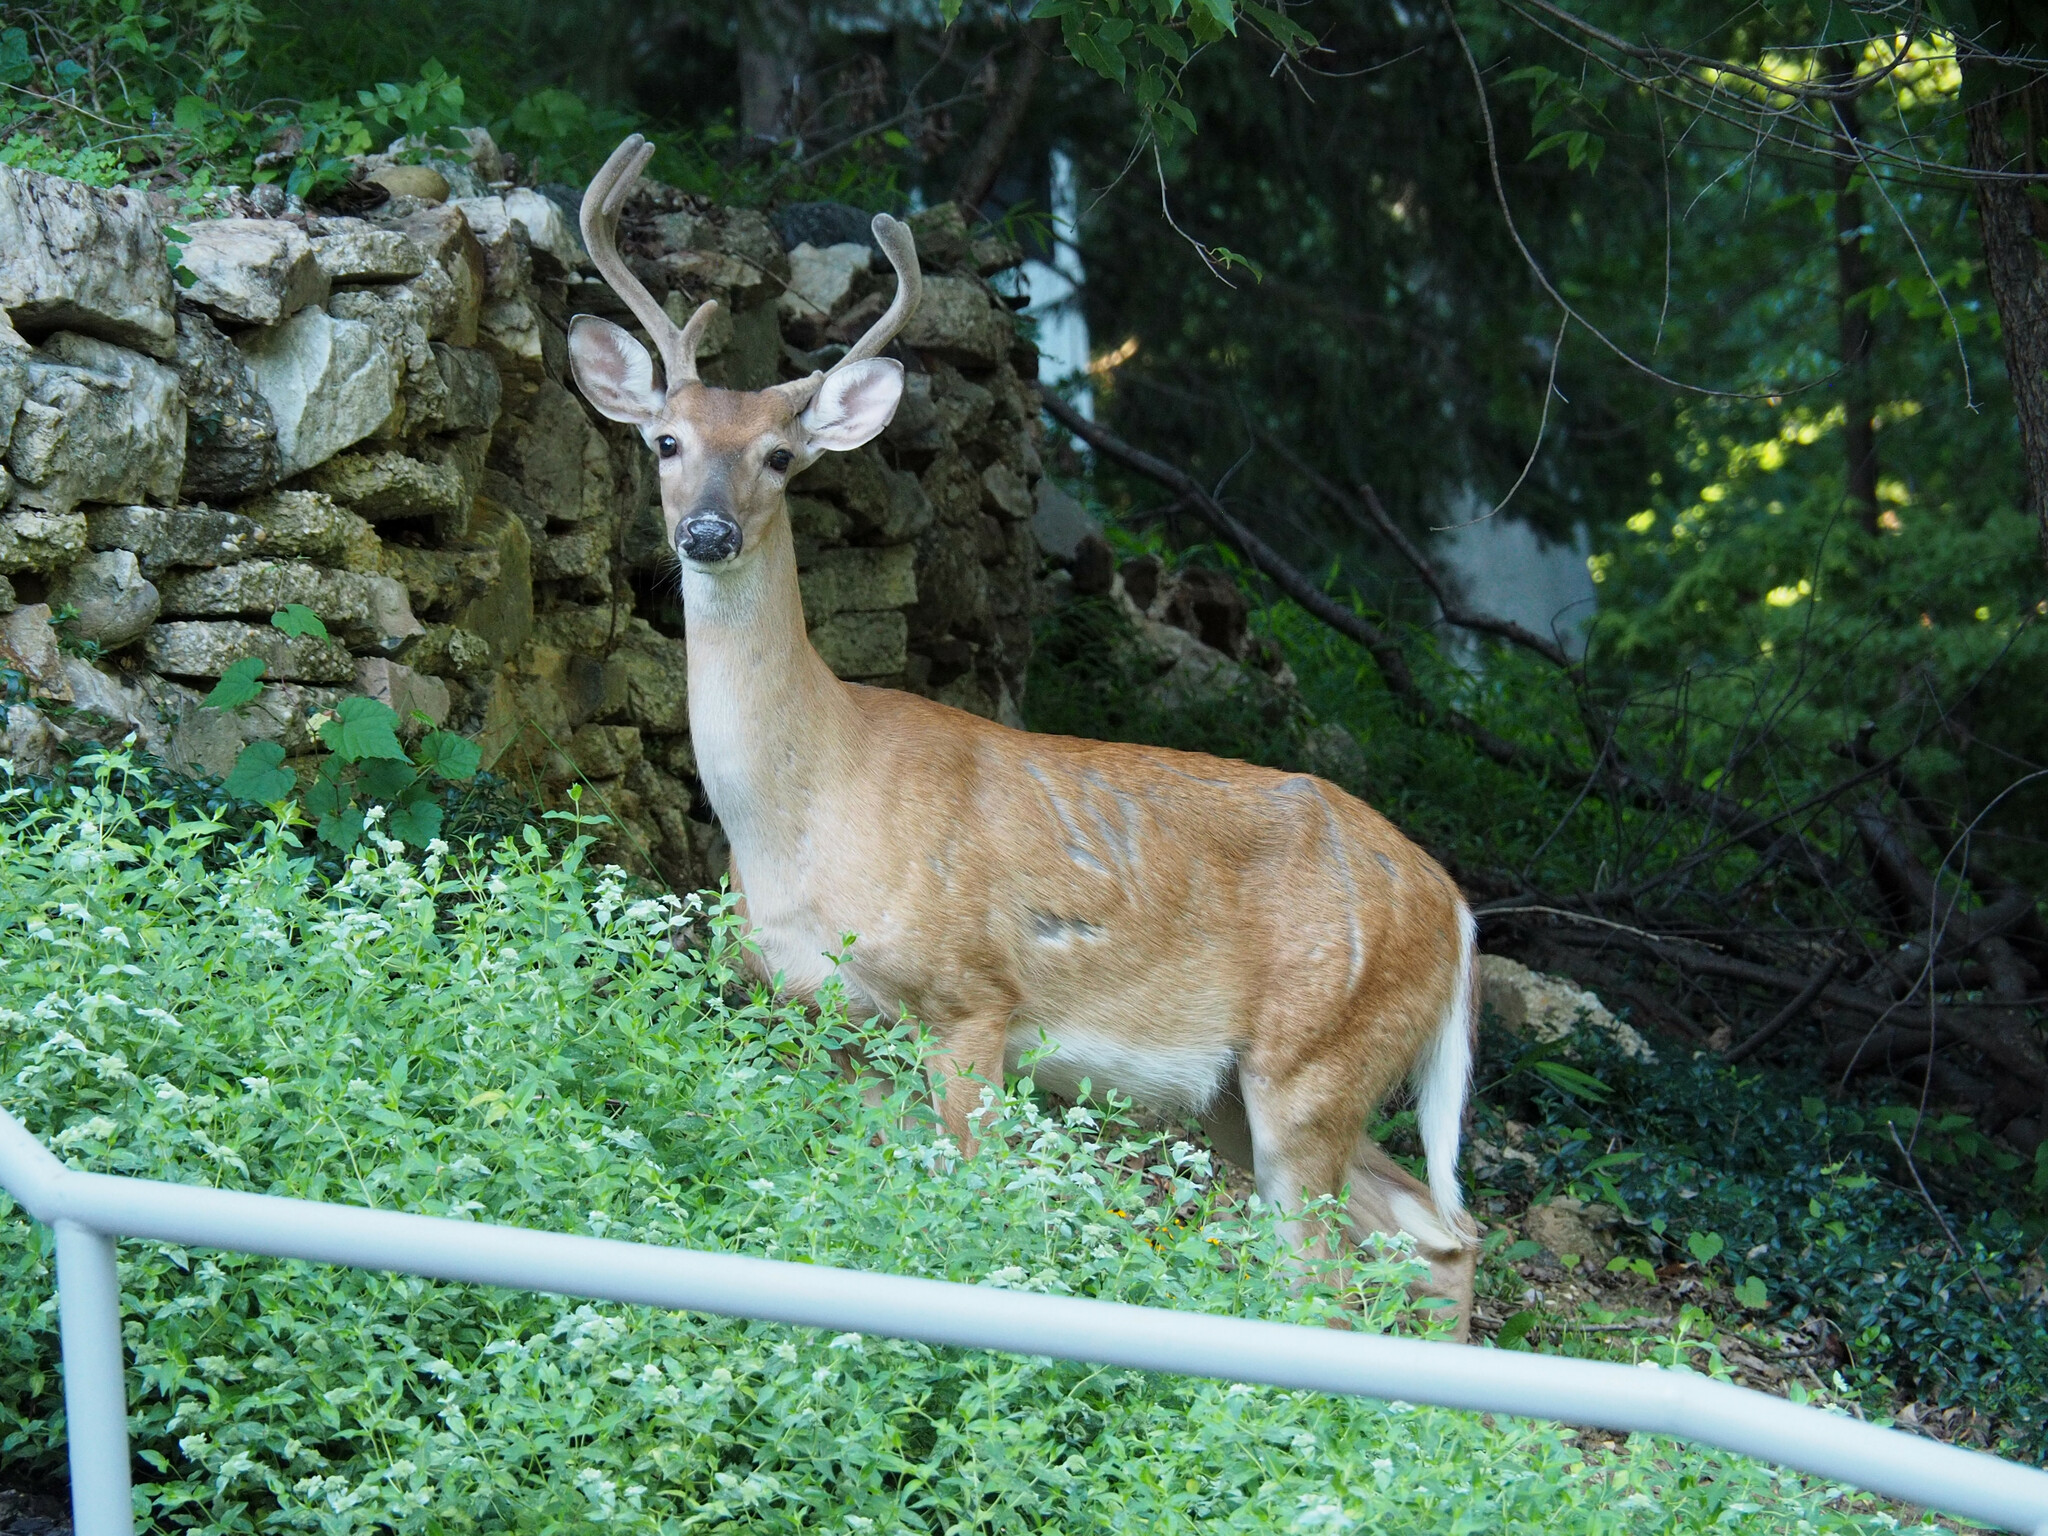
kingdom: Animalia
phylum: Chordata
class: Mammalia
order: Artiodactyla
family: Cervidae
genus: Odocoileus
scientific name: Odocoileus virginianus
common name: White-tailed deer
